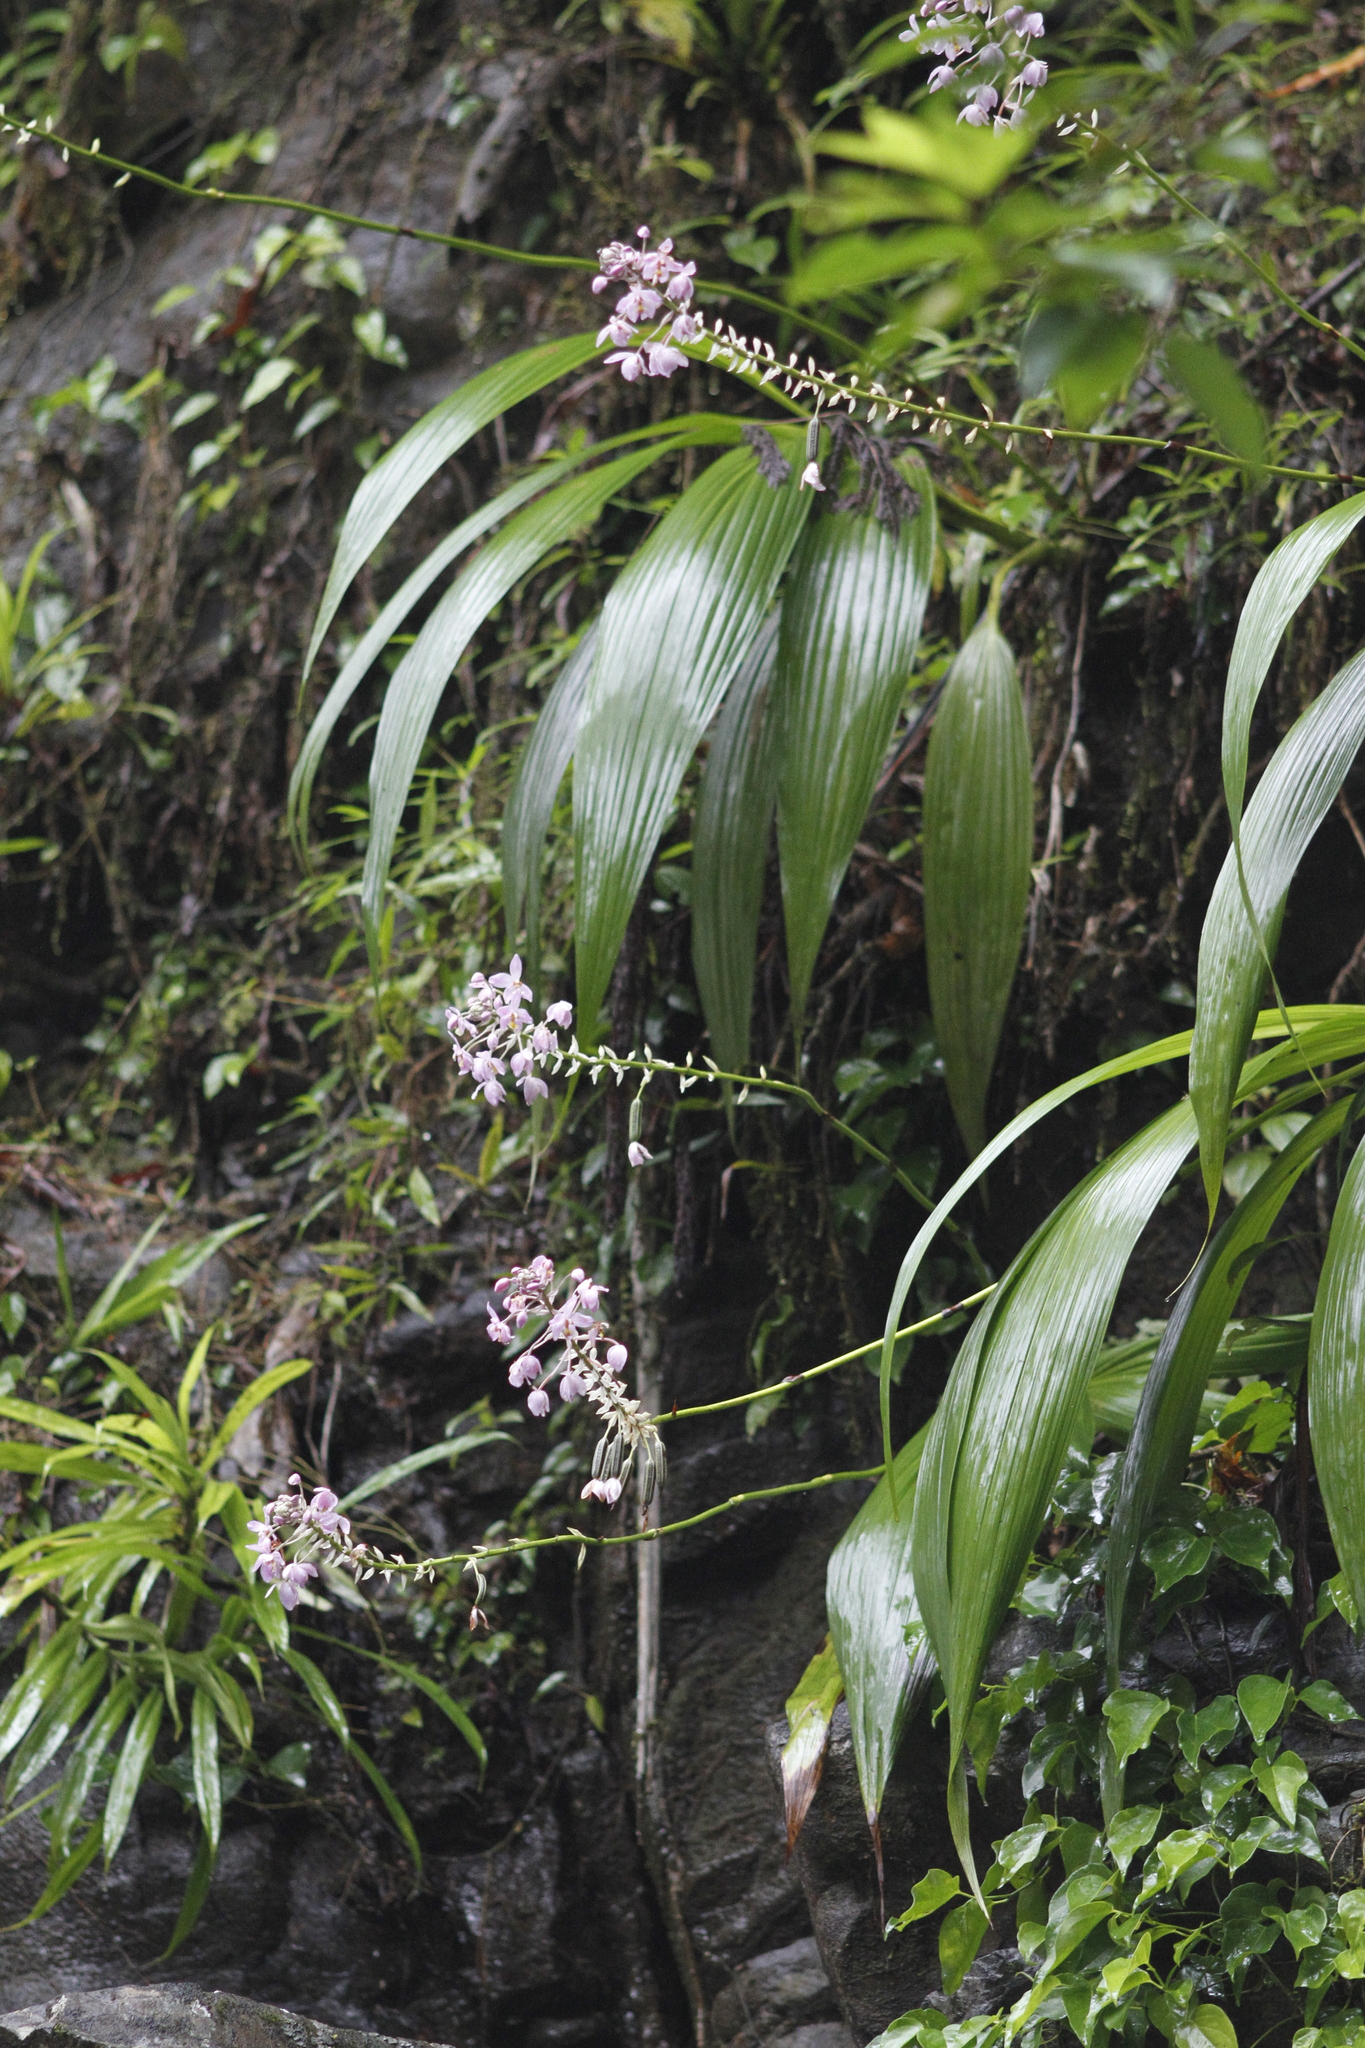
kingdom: Plantae
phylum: Tracheophyta
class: Liliopsida
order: Asparagales
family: Orchidaceae
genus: Spathoglottis
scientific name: Spathoglottis plicata
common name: Philippine ground orchid
